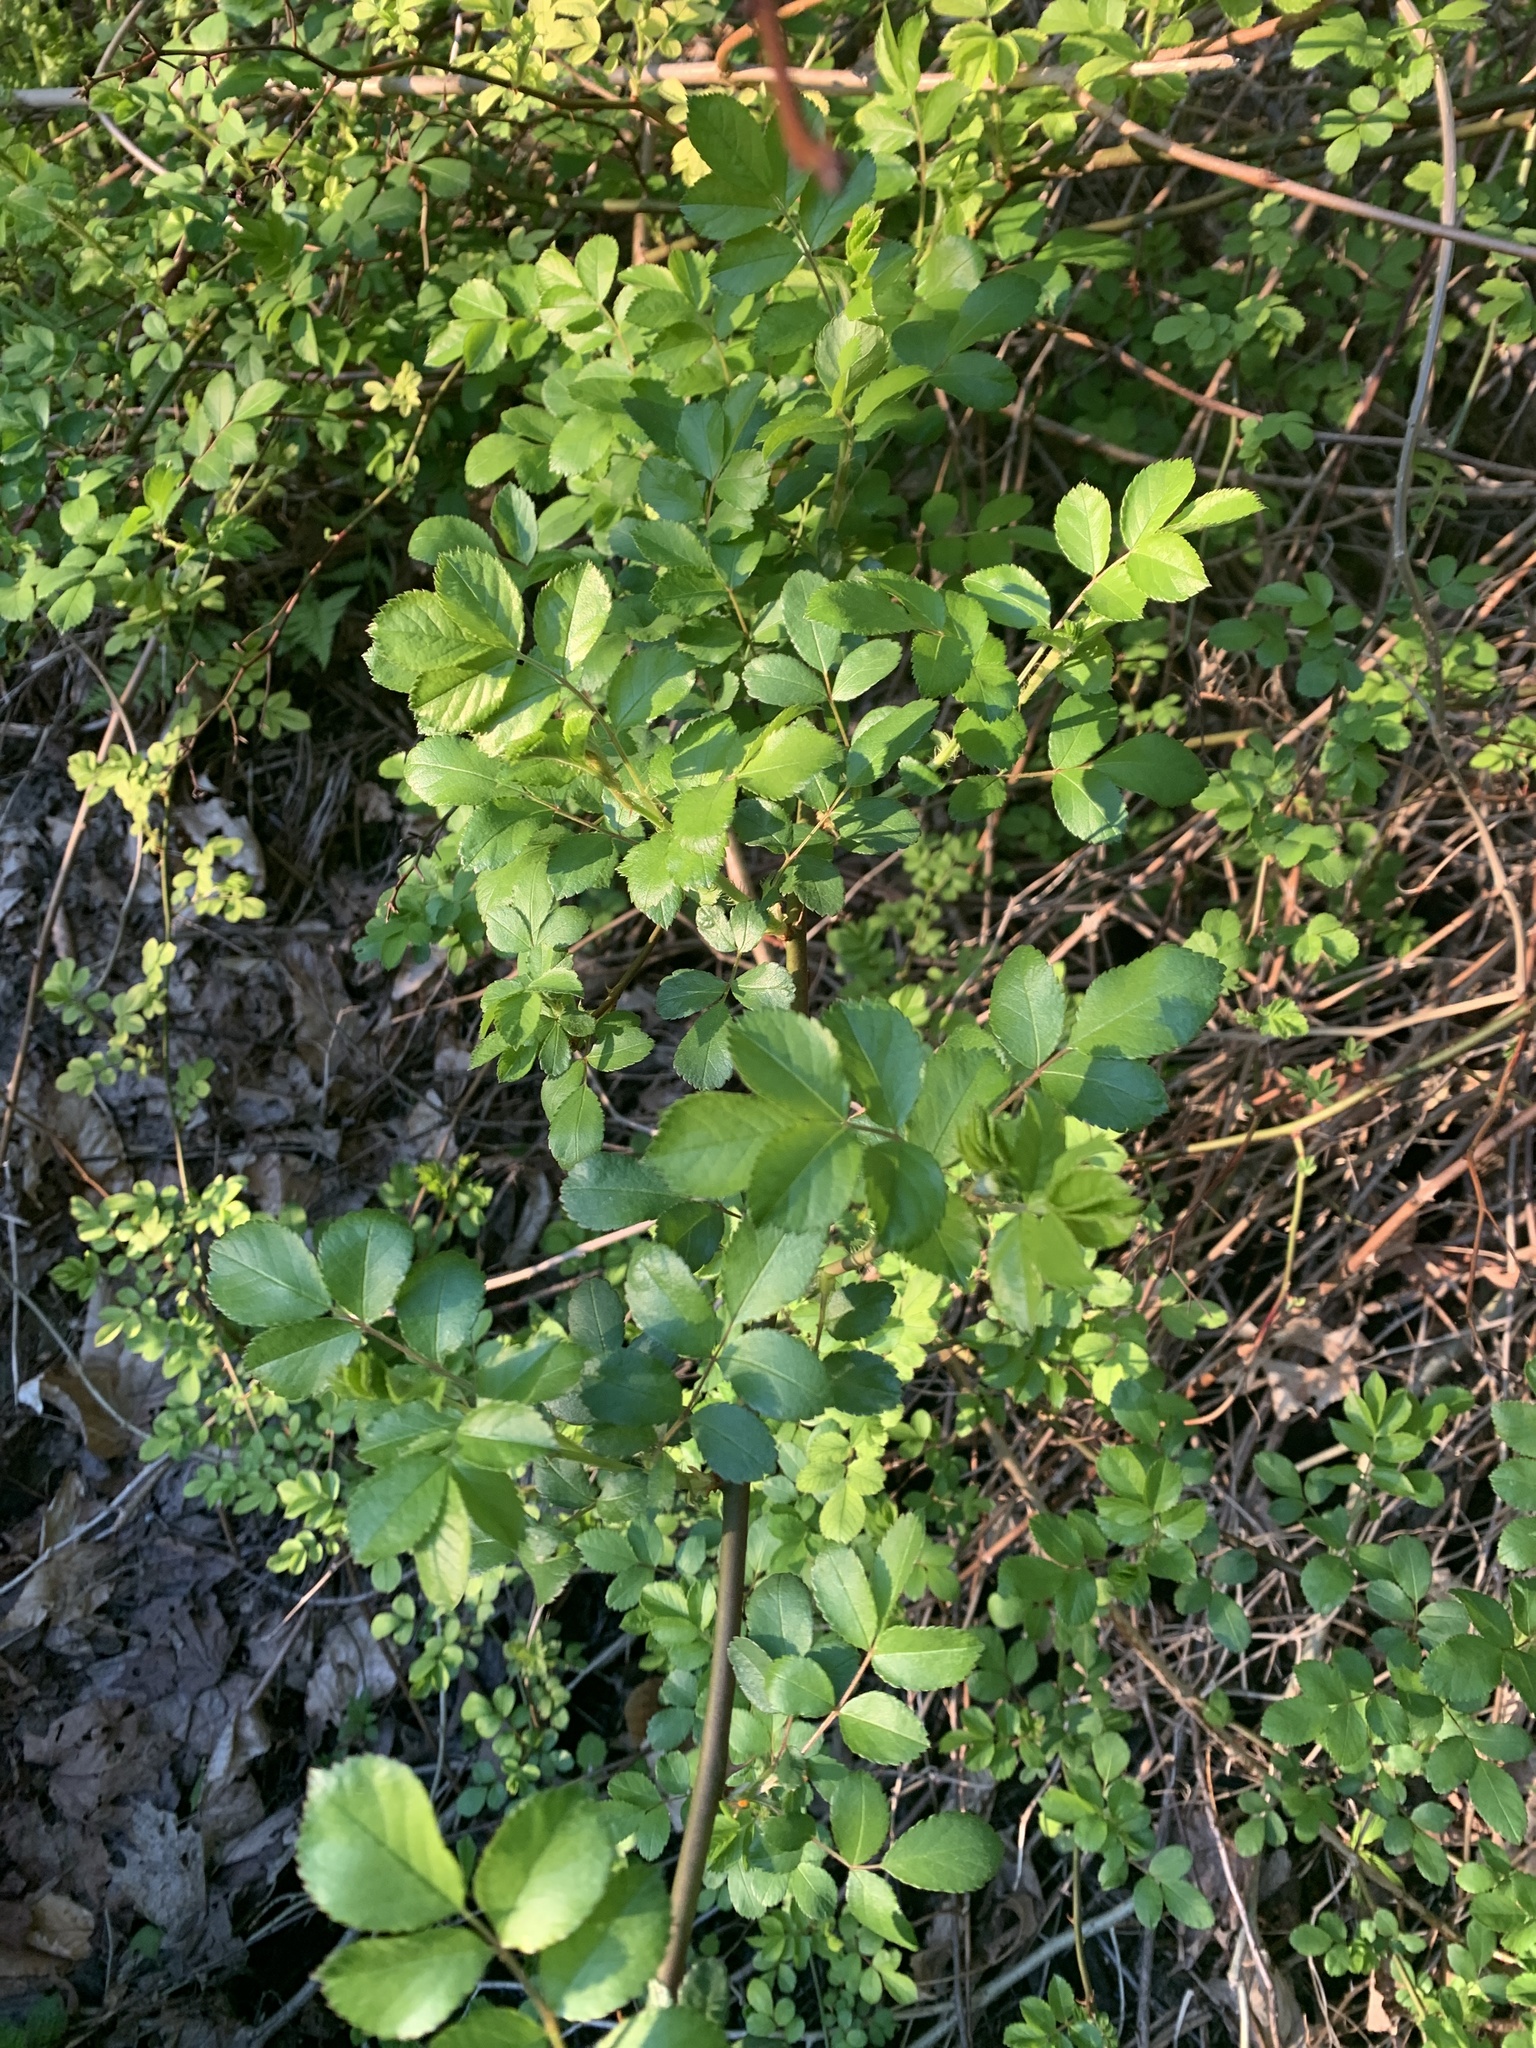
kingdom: Plantae
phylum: Tracheophyta
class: Magnoliopsida
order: Rosales
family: Rosaceae
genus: Rosa
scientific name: Rosa multiflora
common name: Multiflora rose
